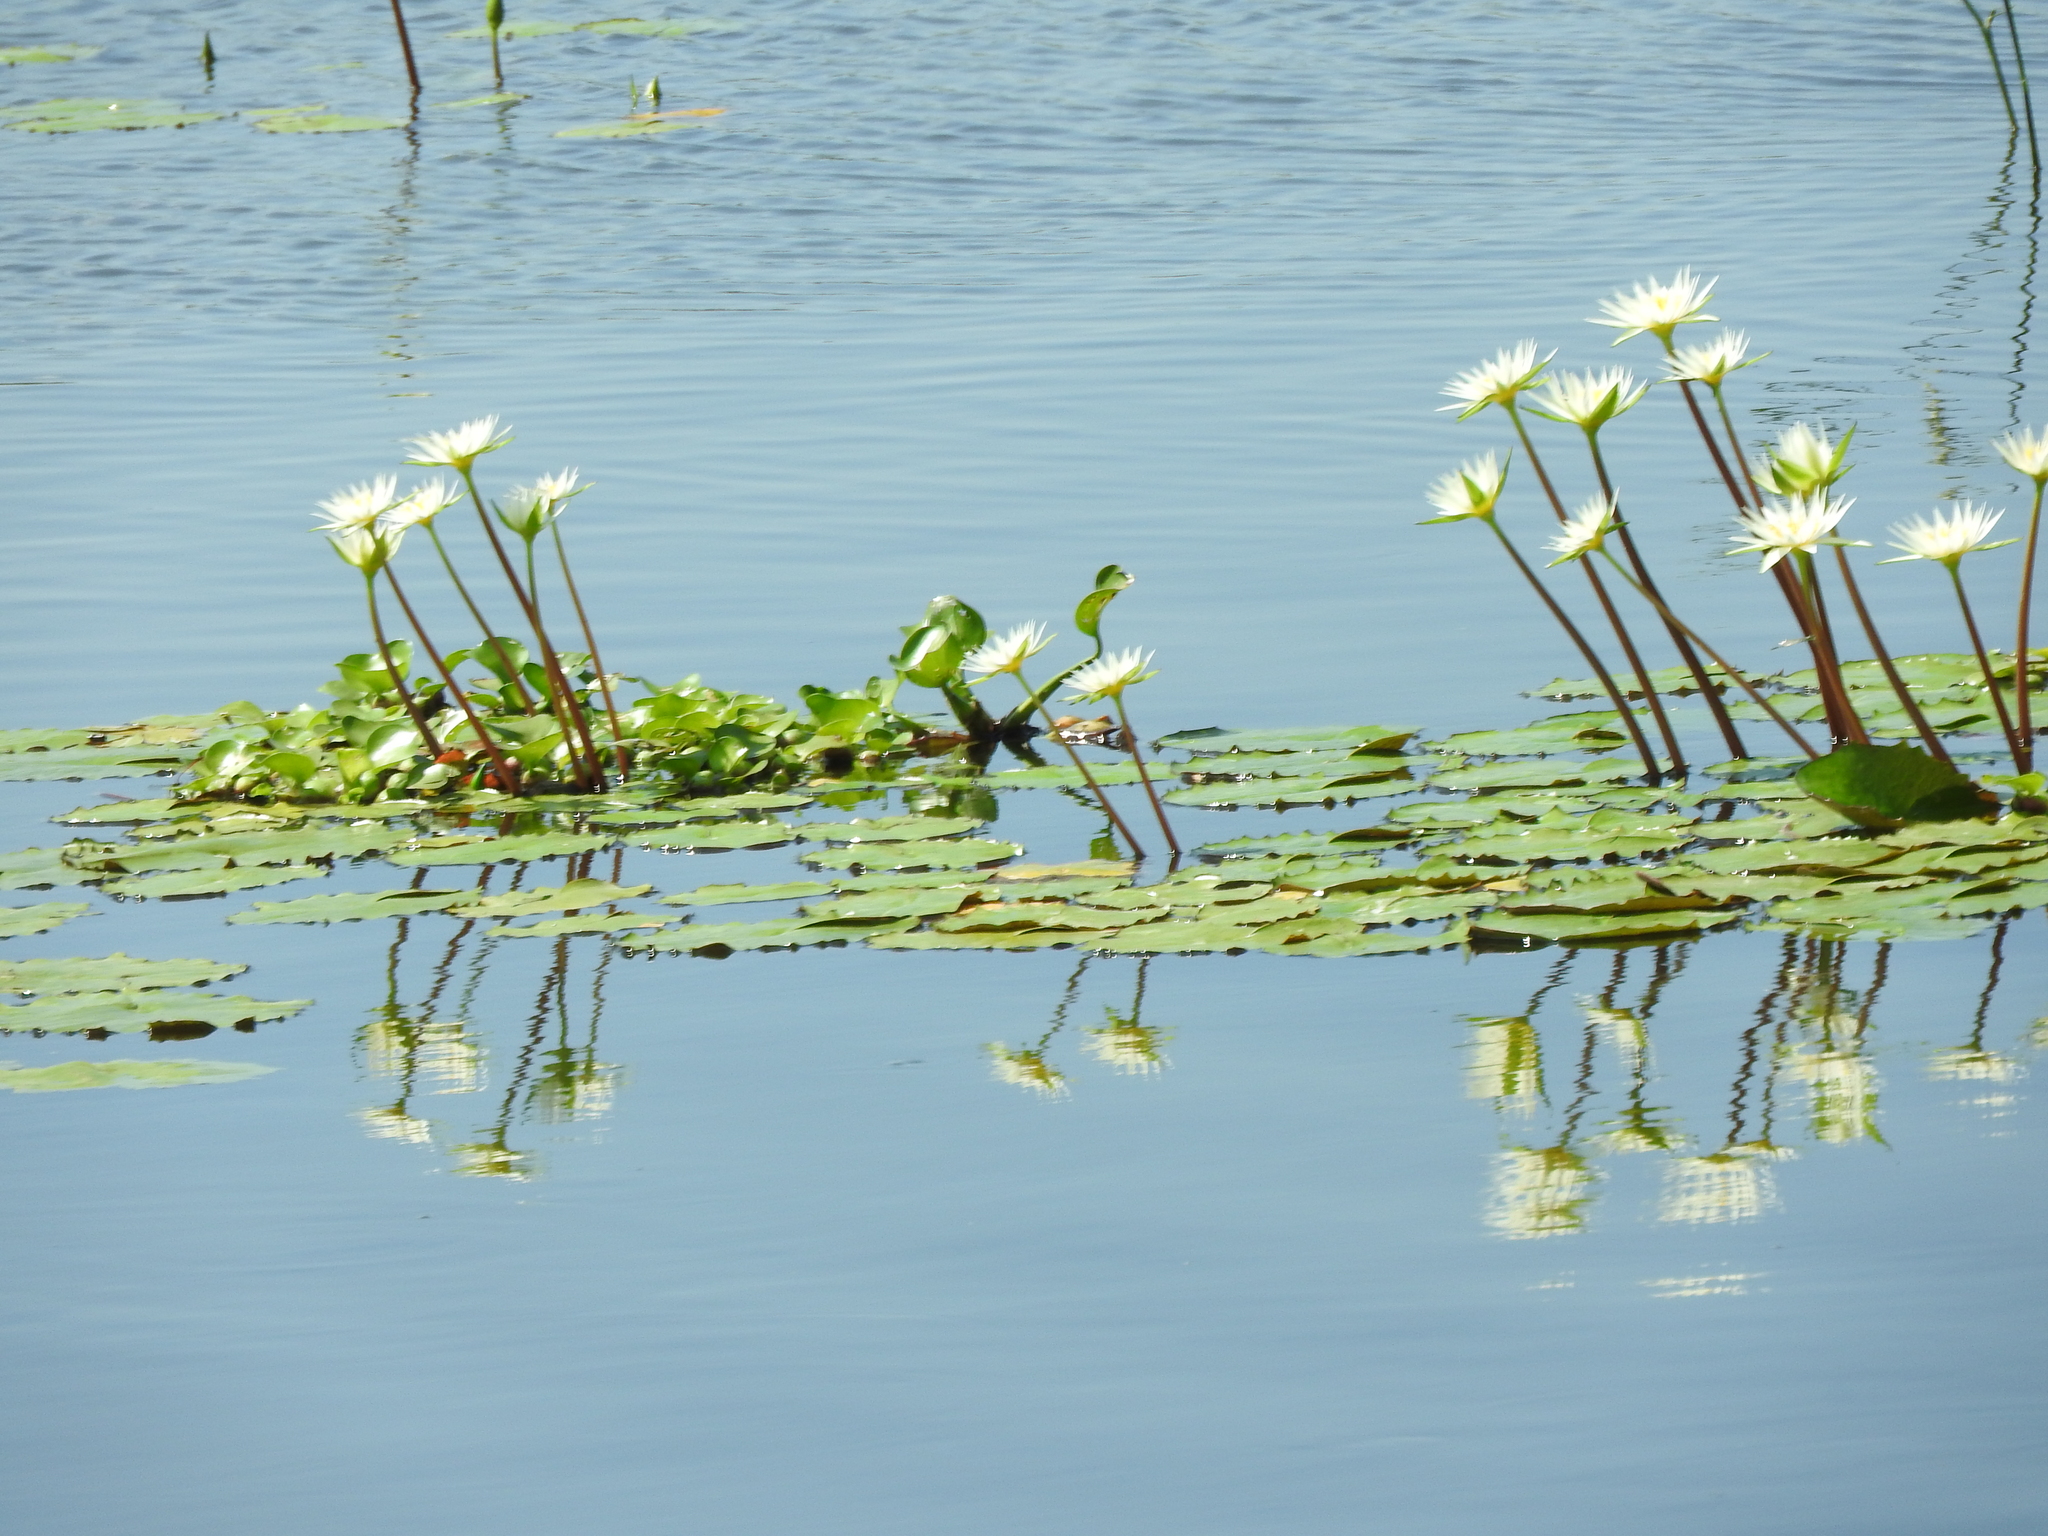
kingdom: Plantae
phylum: Tracheophyta
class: Magnoliopsida
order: Nymphaeales
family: Nymphaeaceae
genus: Nymphaea
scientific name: Nymphaea gracilis
